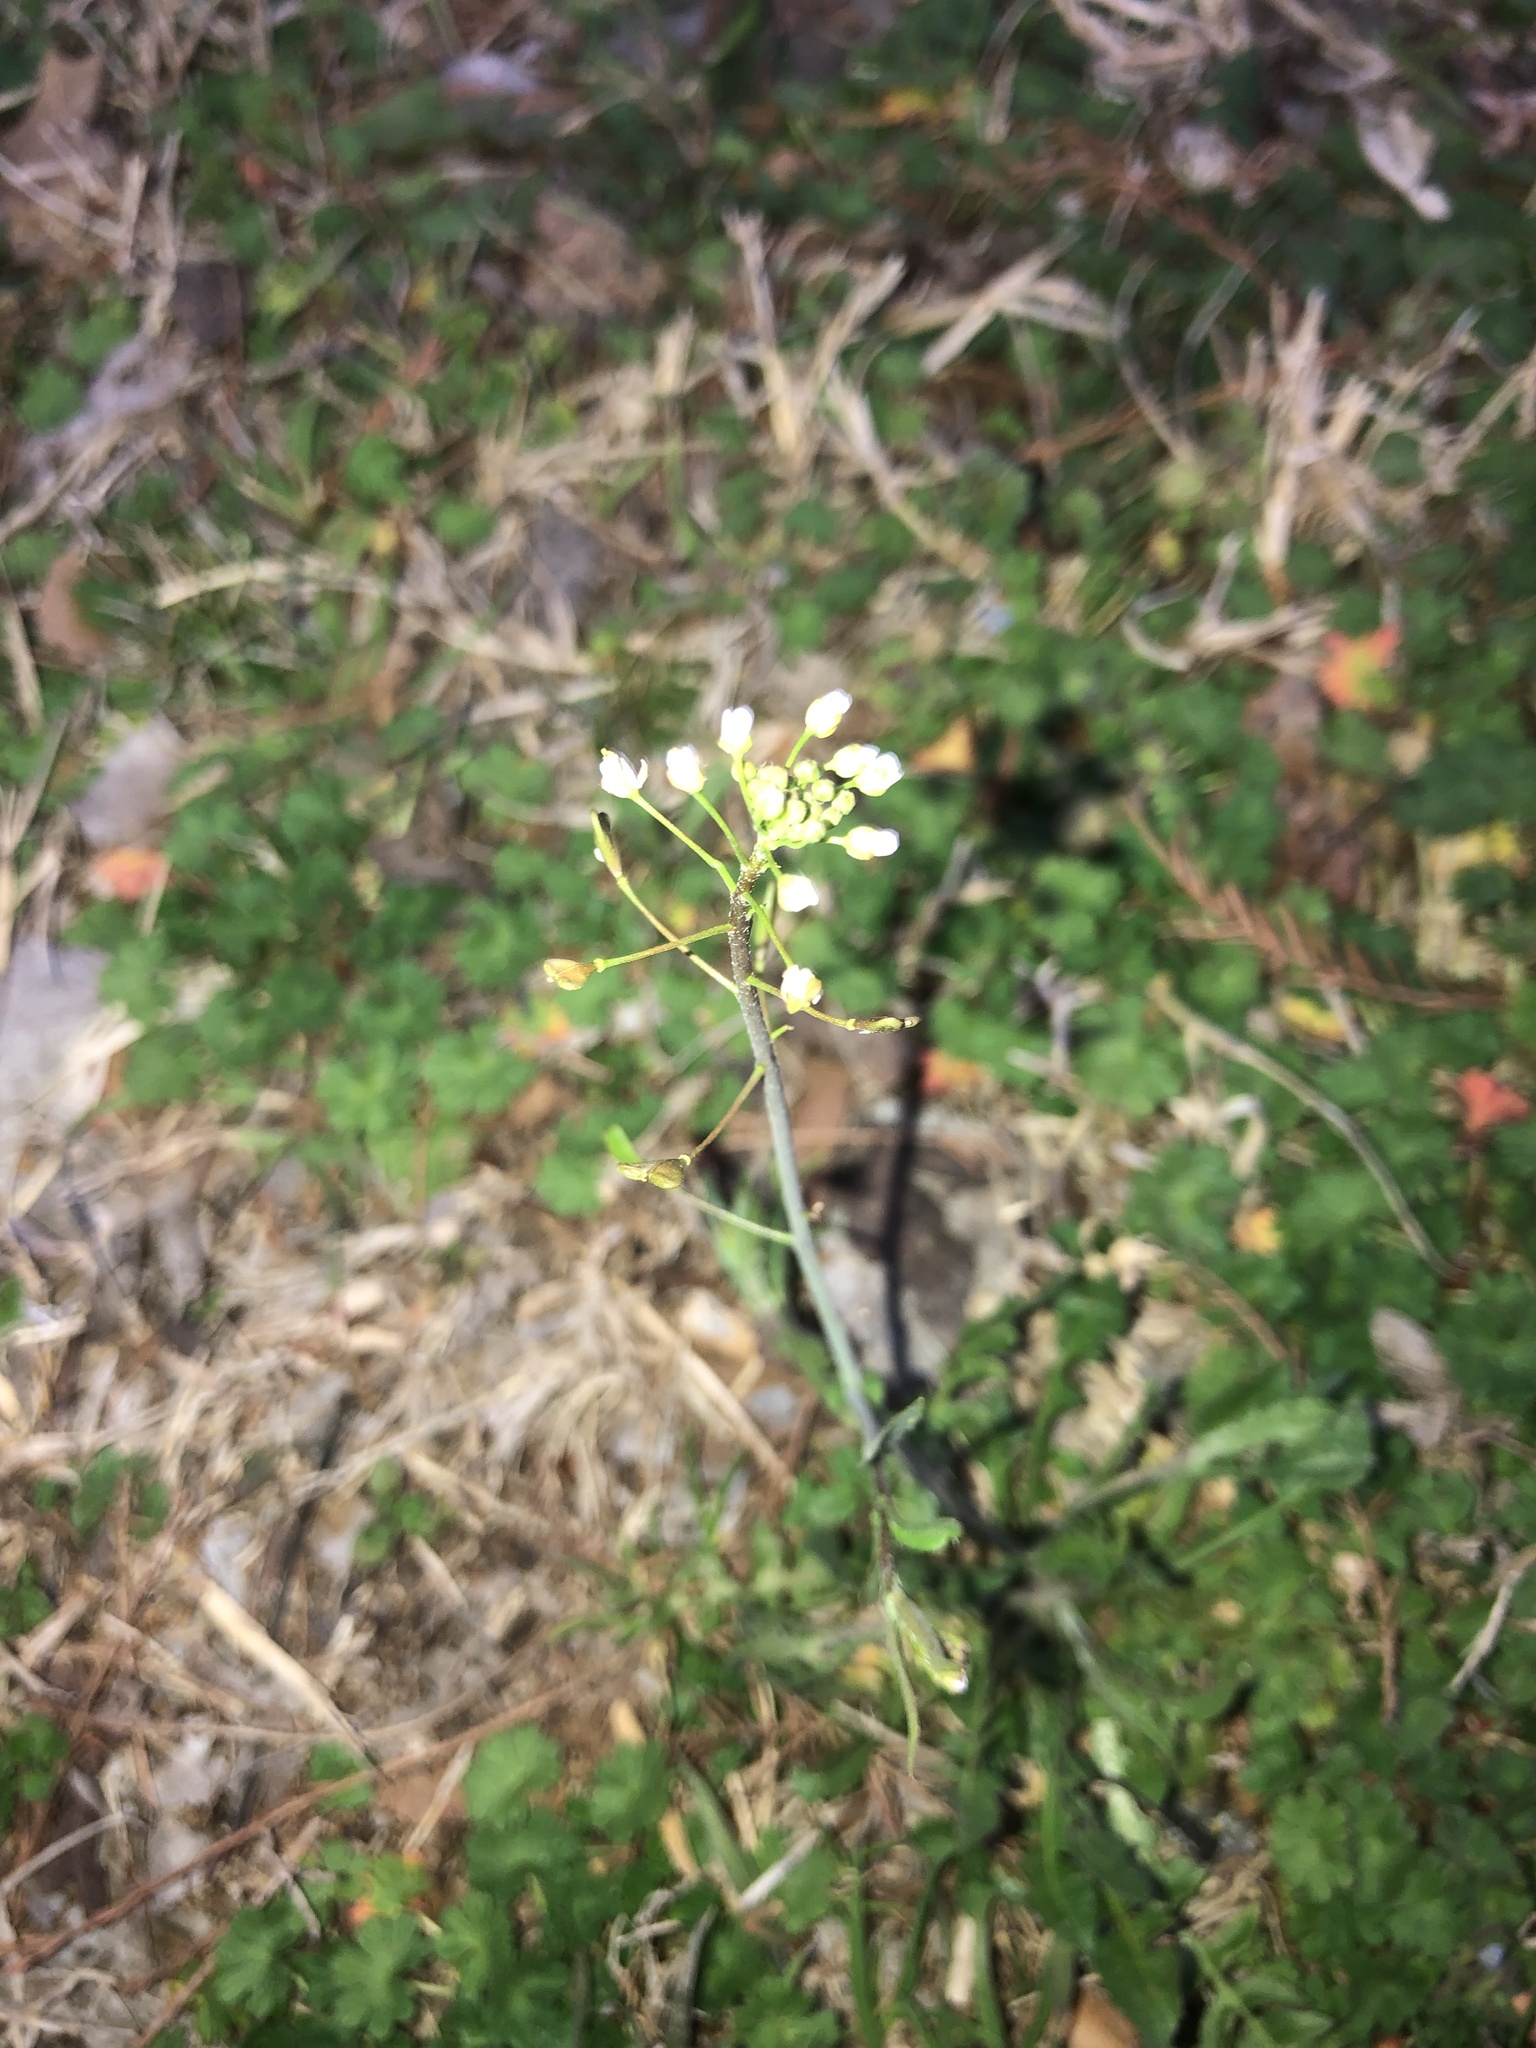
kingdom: Plantae
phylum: Tracheophyta
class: Magnoliopsida
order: Brassicales
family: Brassicaceae
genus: Capsella
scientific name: Capsella bursa-pastoris
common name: Shepherd's purse
